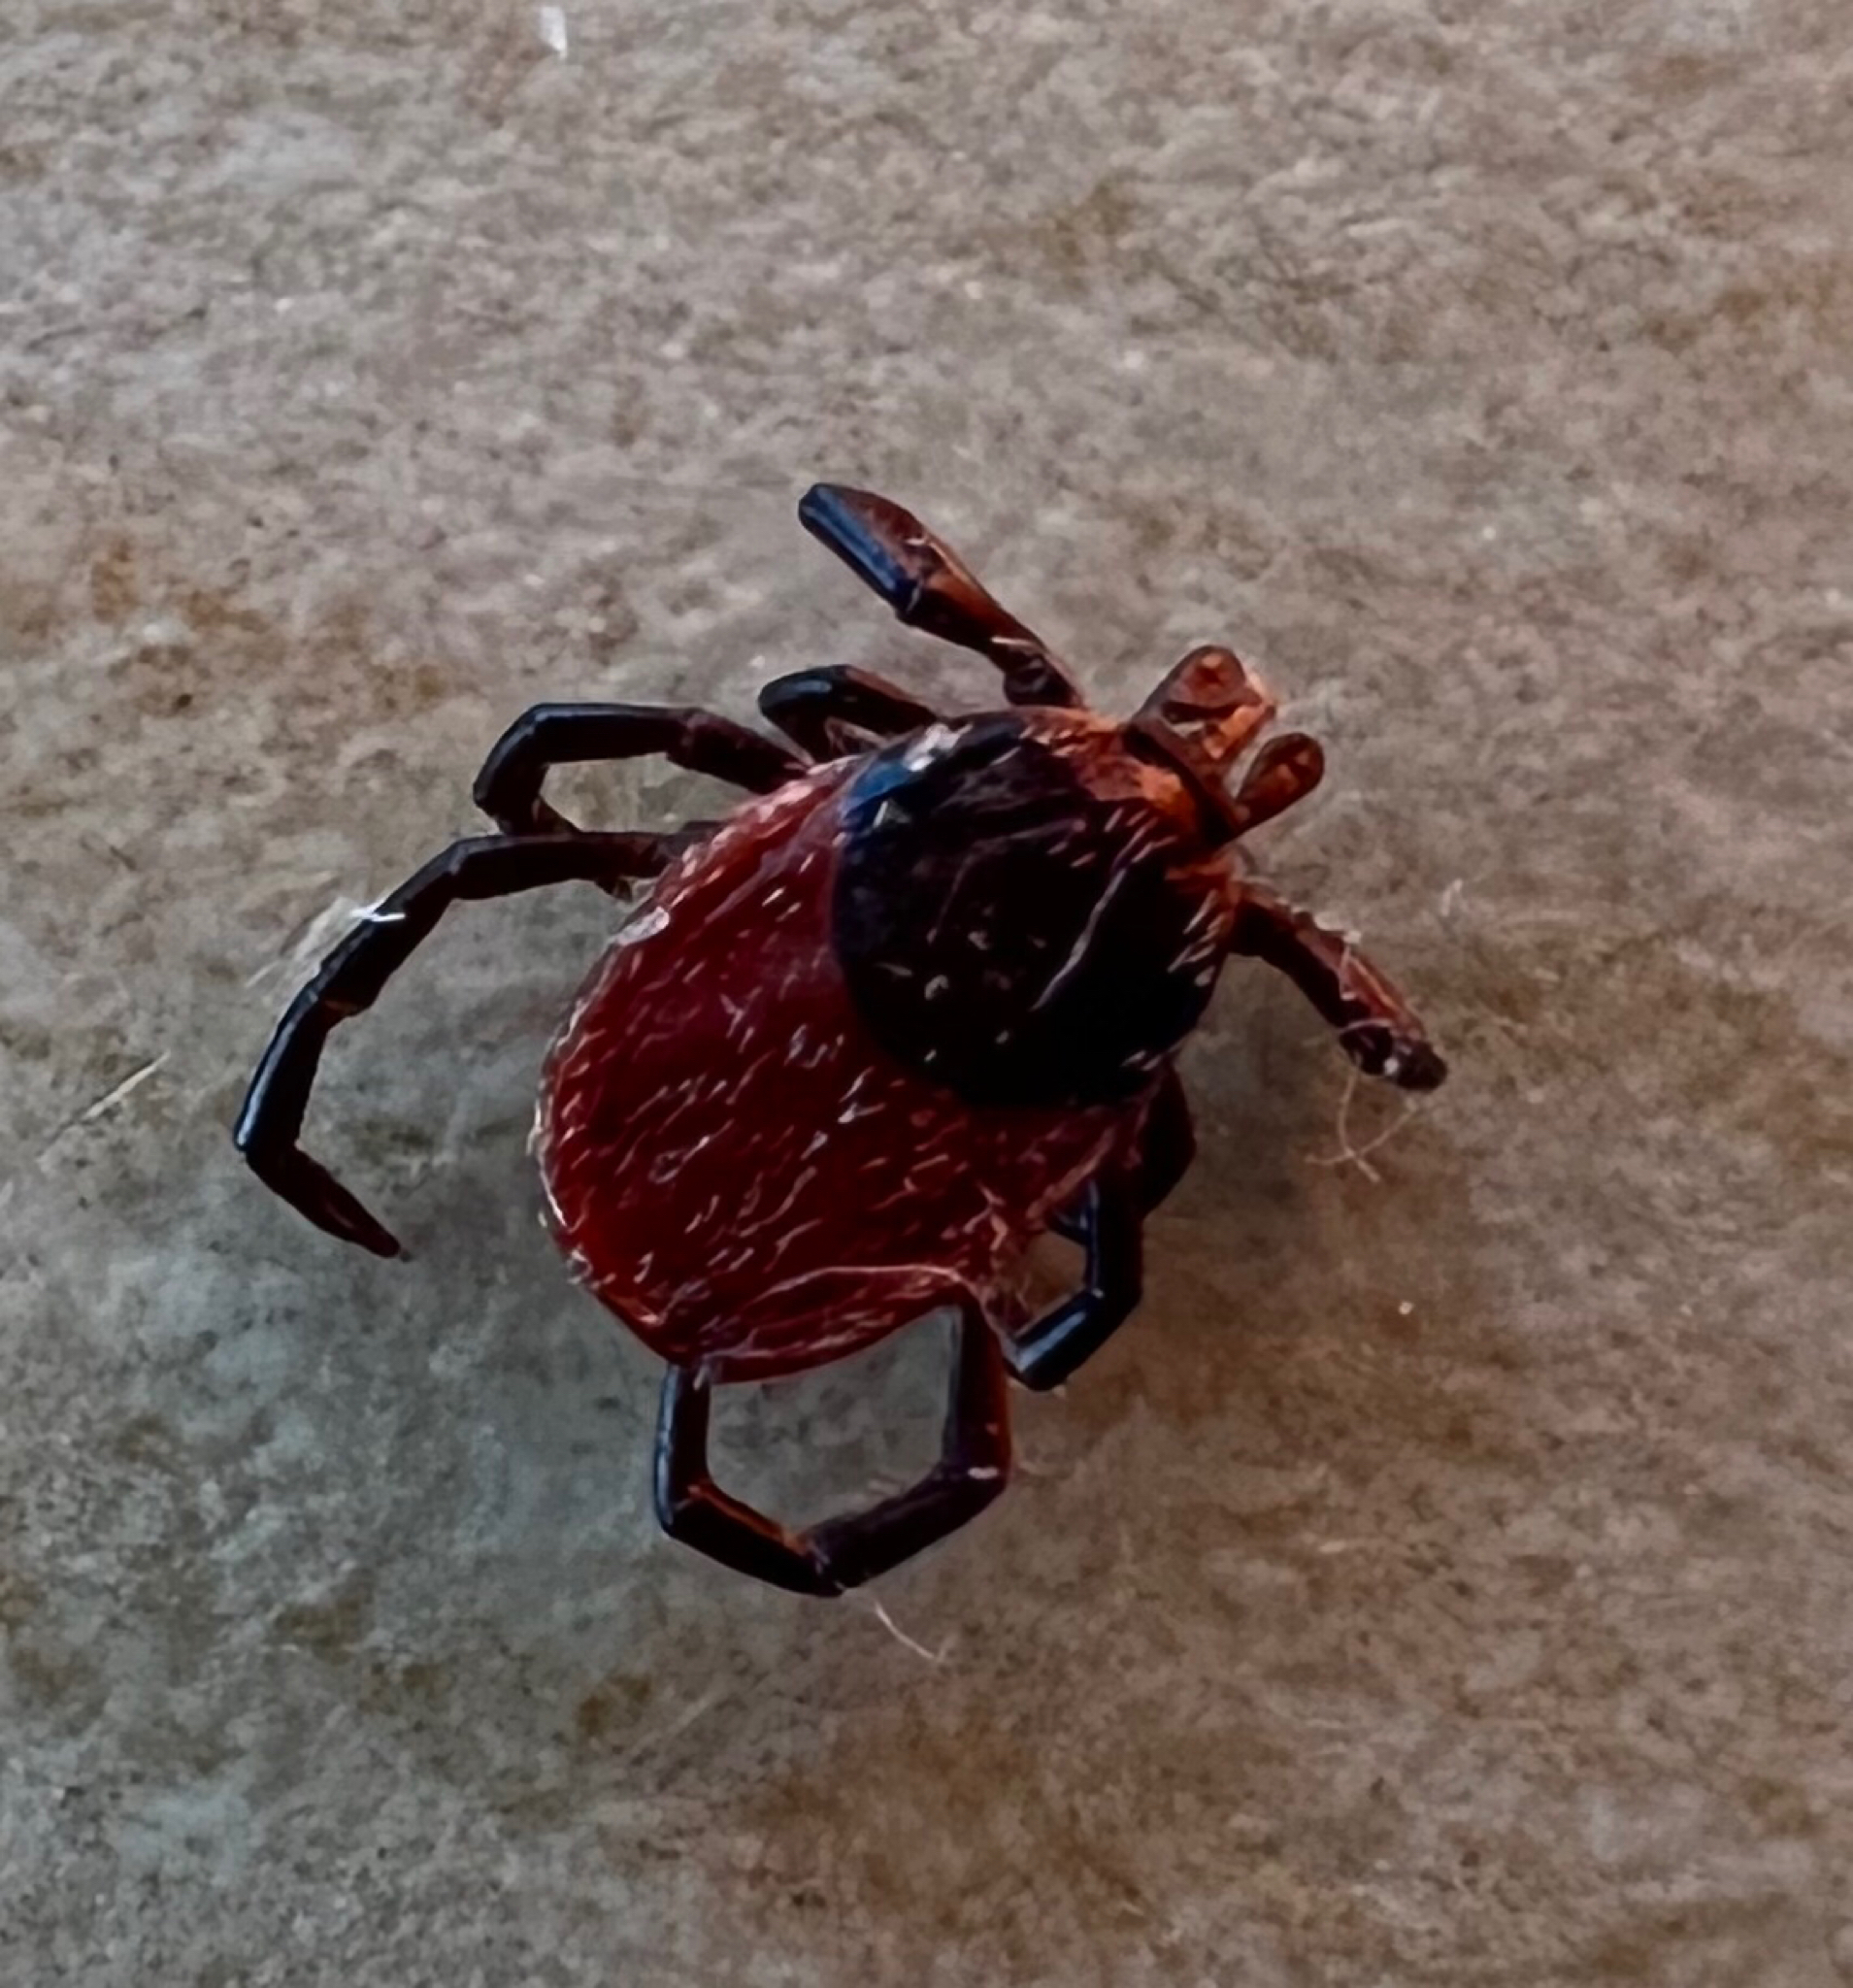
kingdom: Animalia
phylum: Arthropoda
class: Arachnida
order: Ixodida
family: Ixodidae
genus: Ixodes
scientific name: Ixodes pacificus
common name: California black-legged tick
